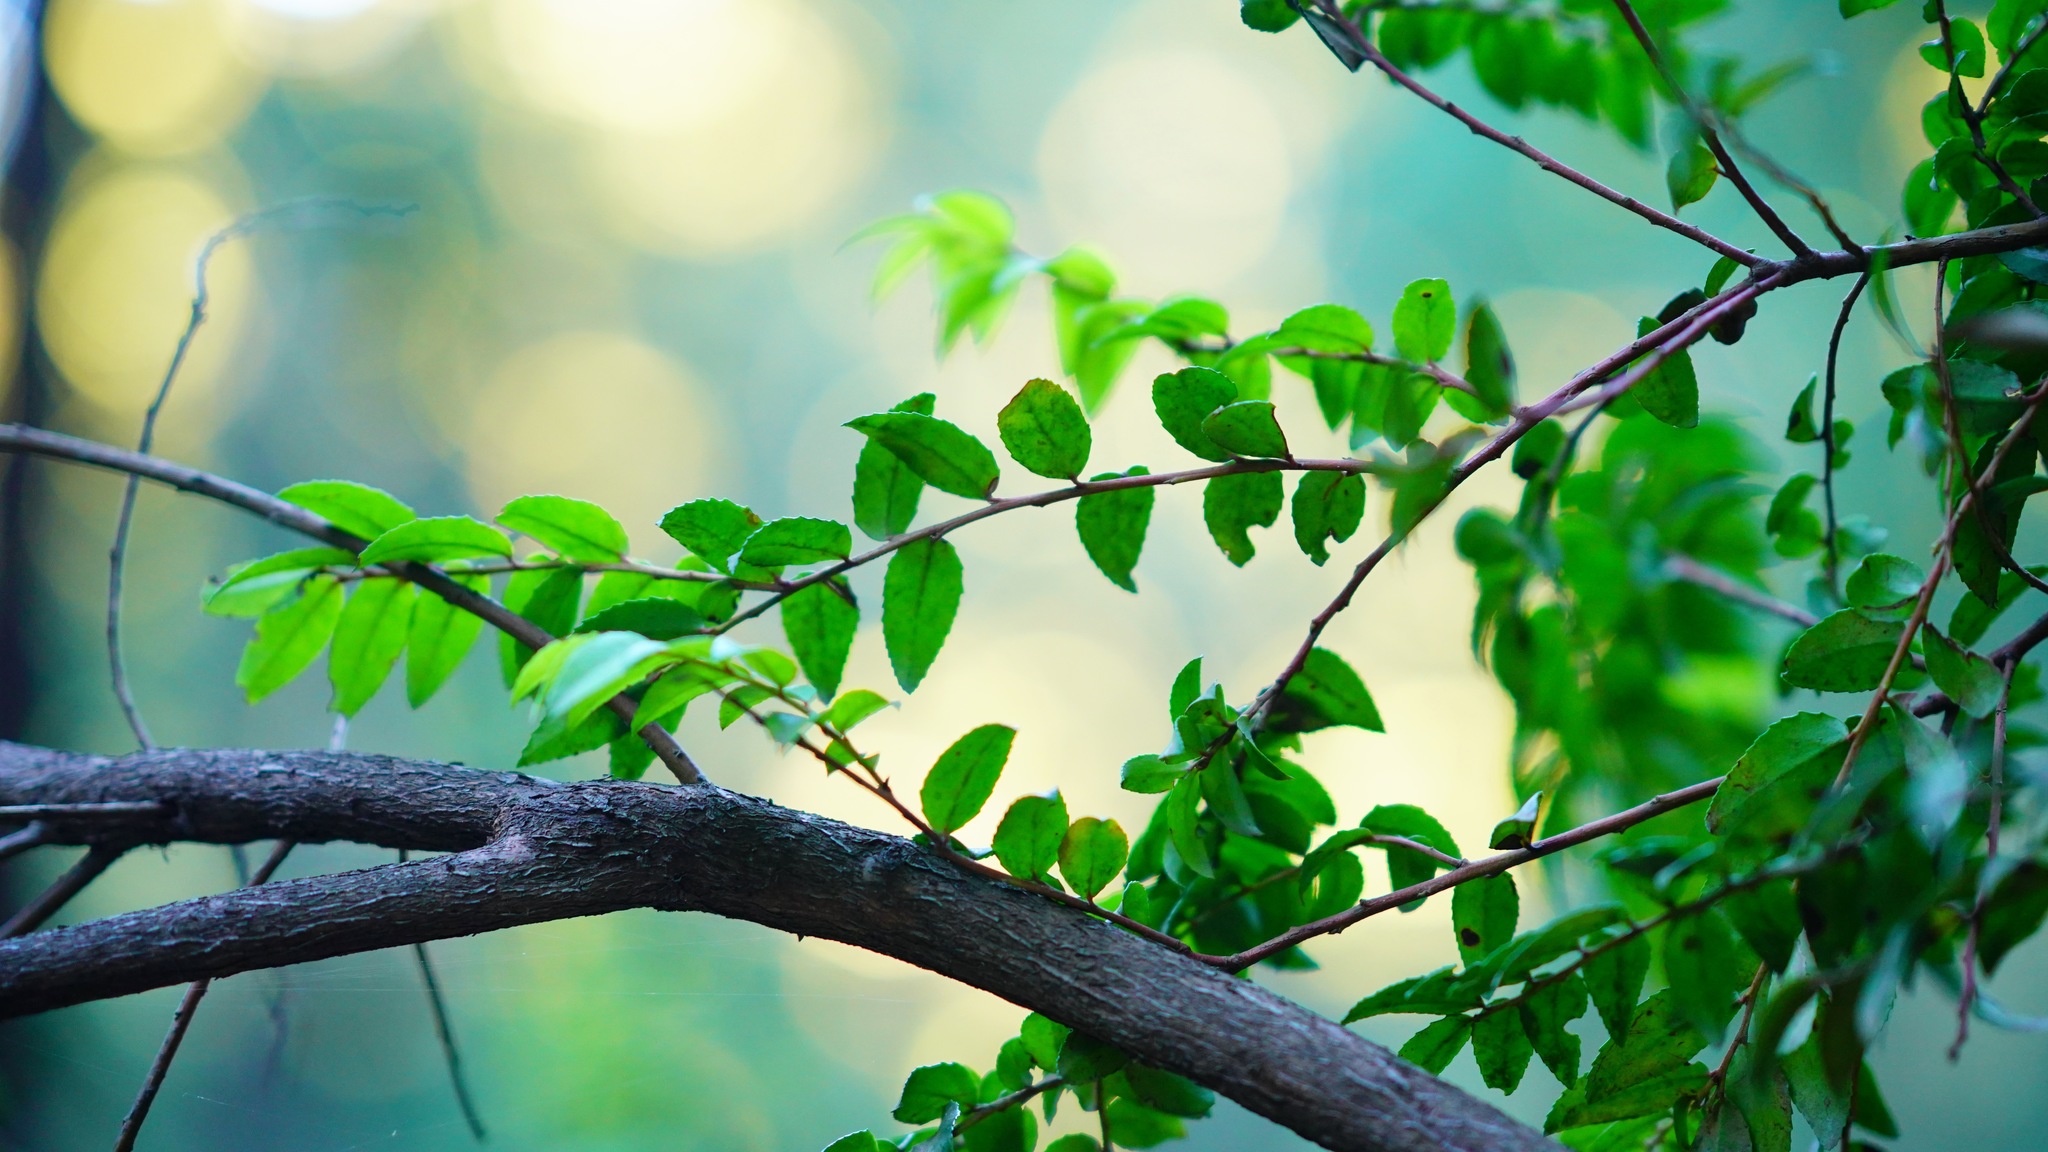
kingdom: Plantae
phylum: Tracheophyta
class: Magnoliopsida
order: Ericales
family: Ericaceae
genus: Vaccinium
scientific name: Vaccinium ovatum
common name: California-huckleberry
